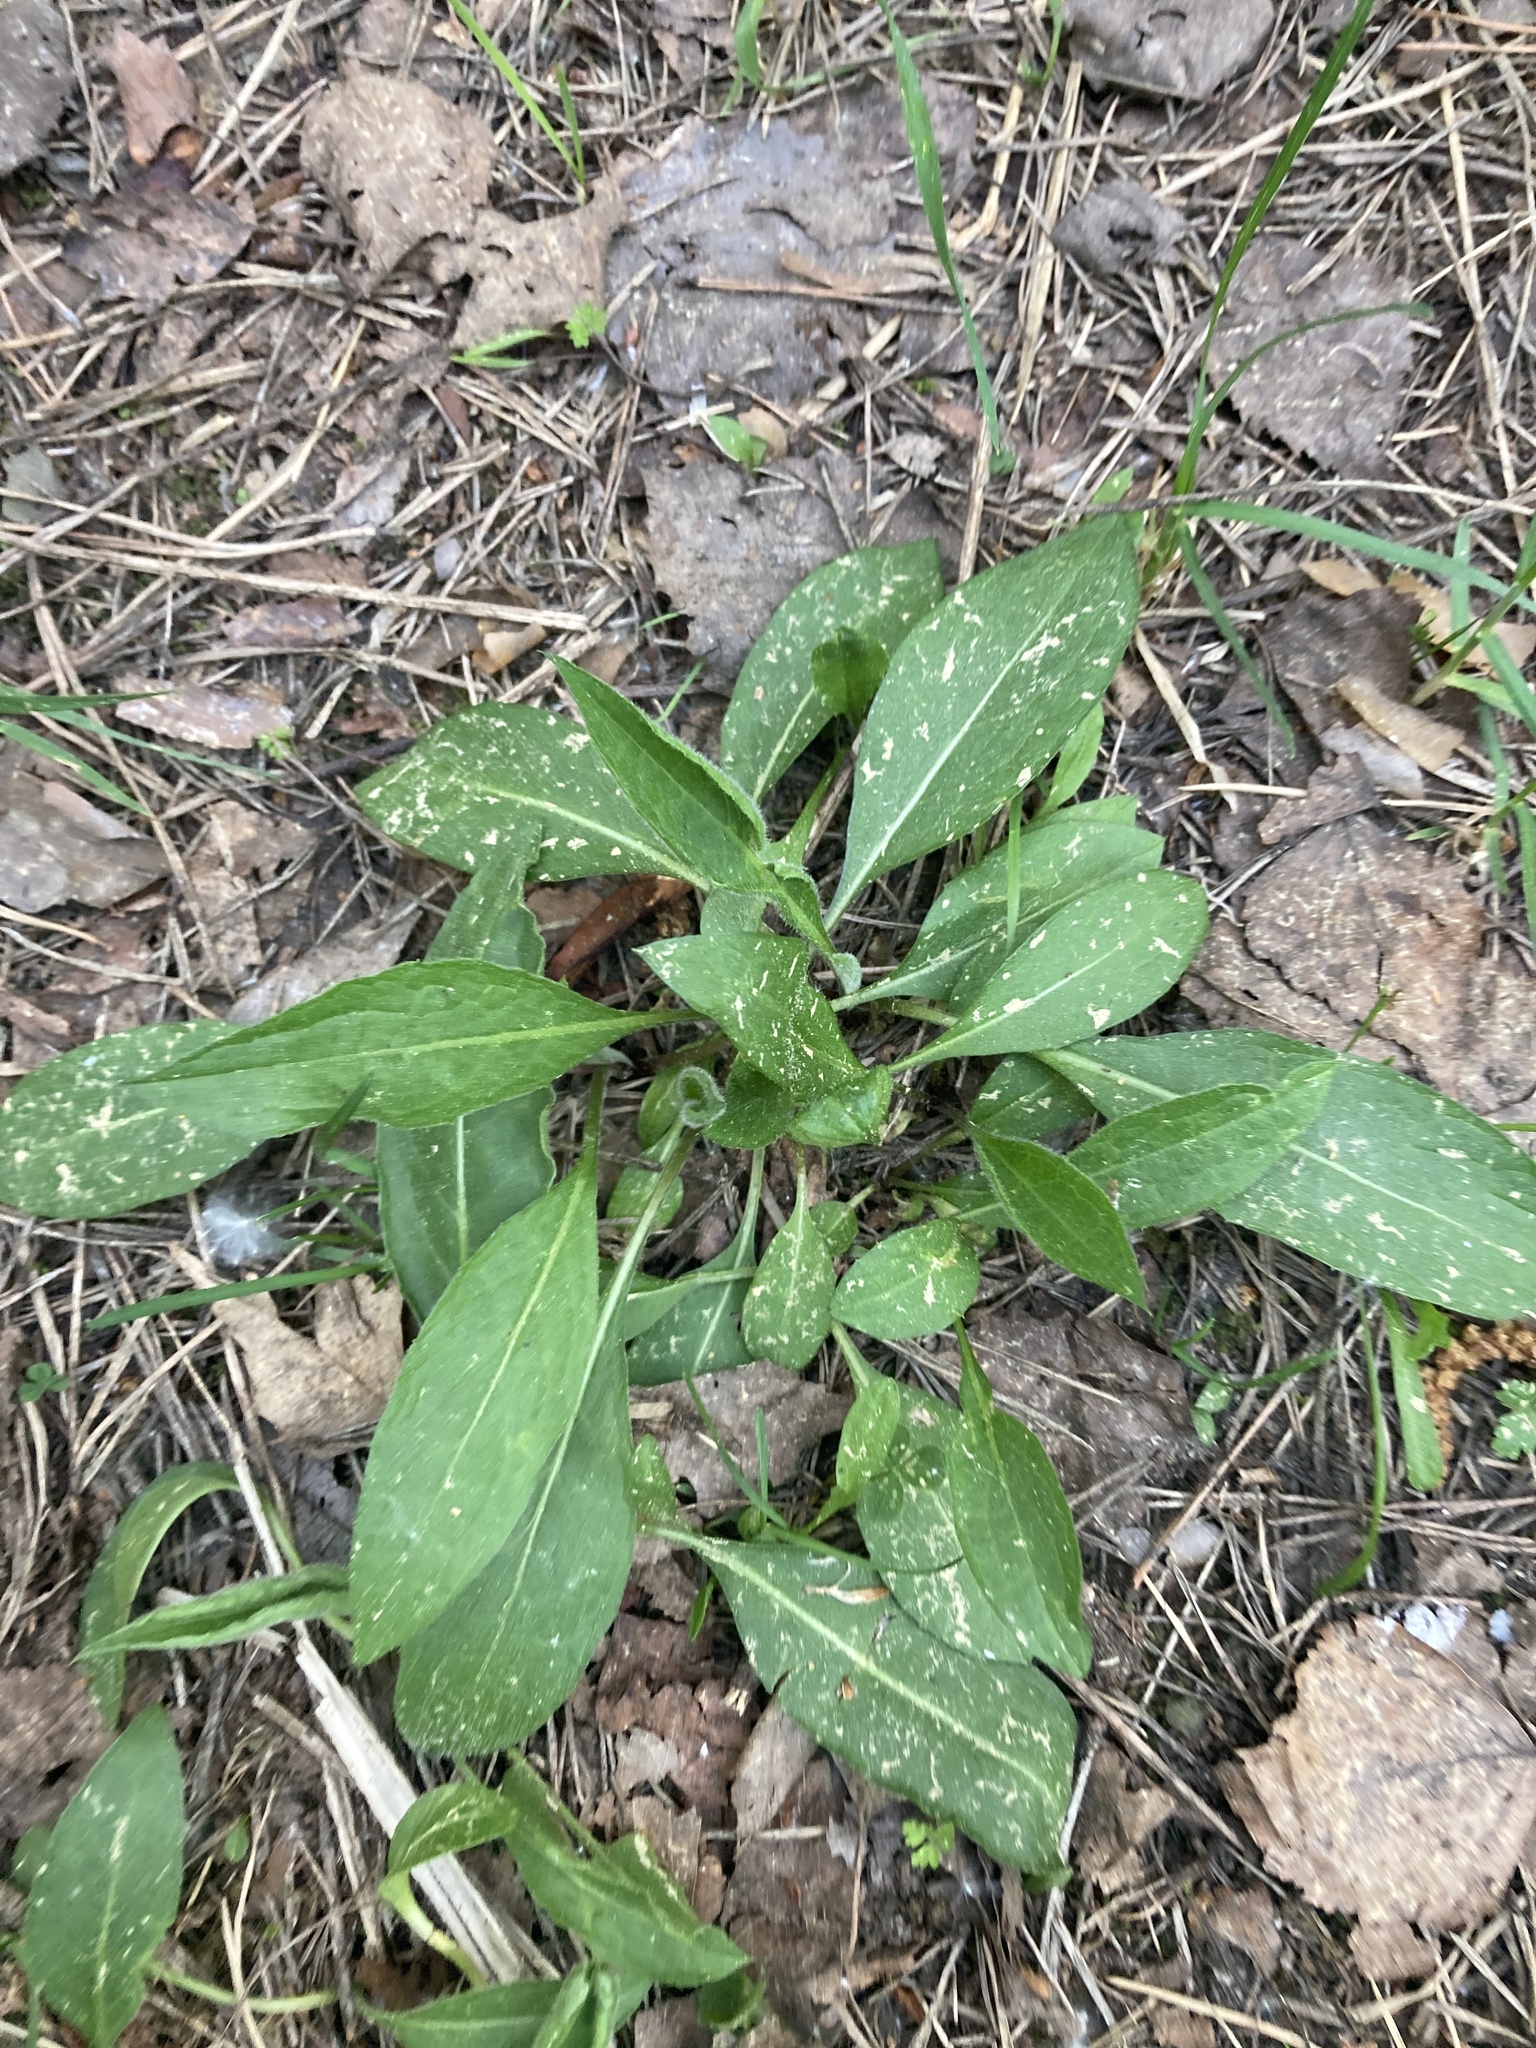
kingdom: Plantae
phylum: Tracheophyta
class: Magnoliopsida
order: Dipsacales
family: Caprifoliaceae
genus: Succisa
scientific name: Succisa pratensis
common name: Devil's-bit
